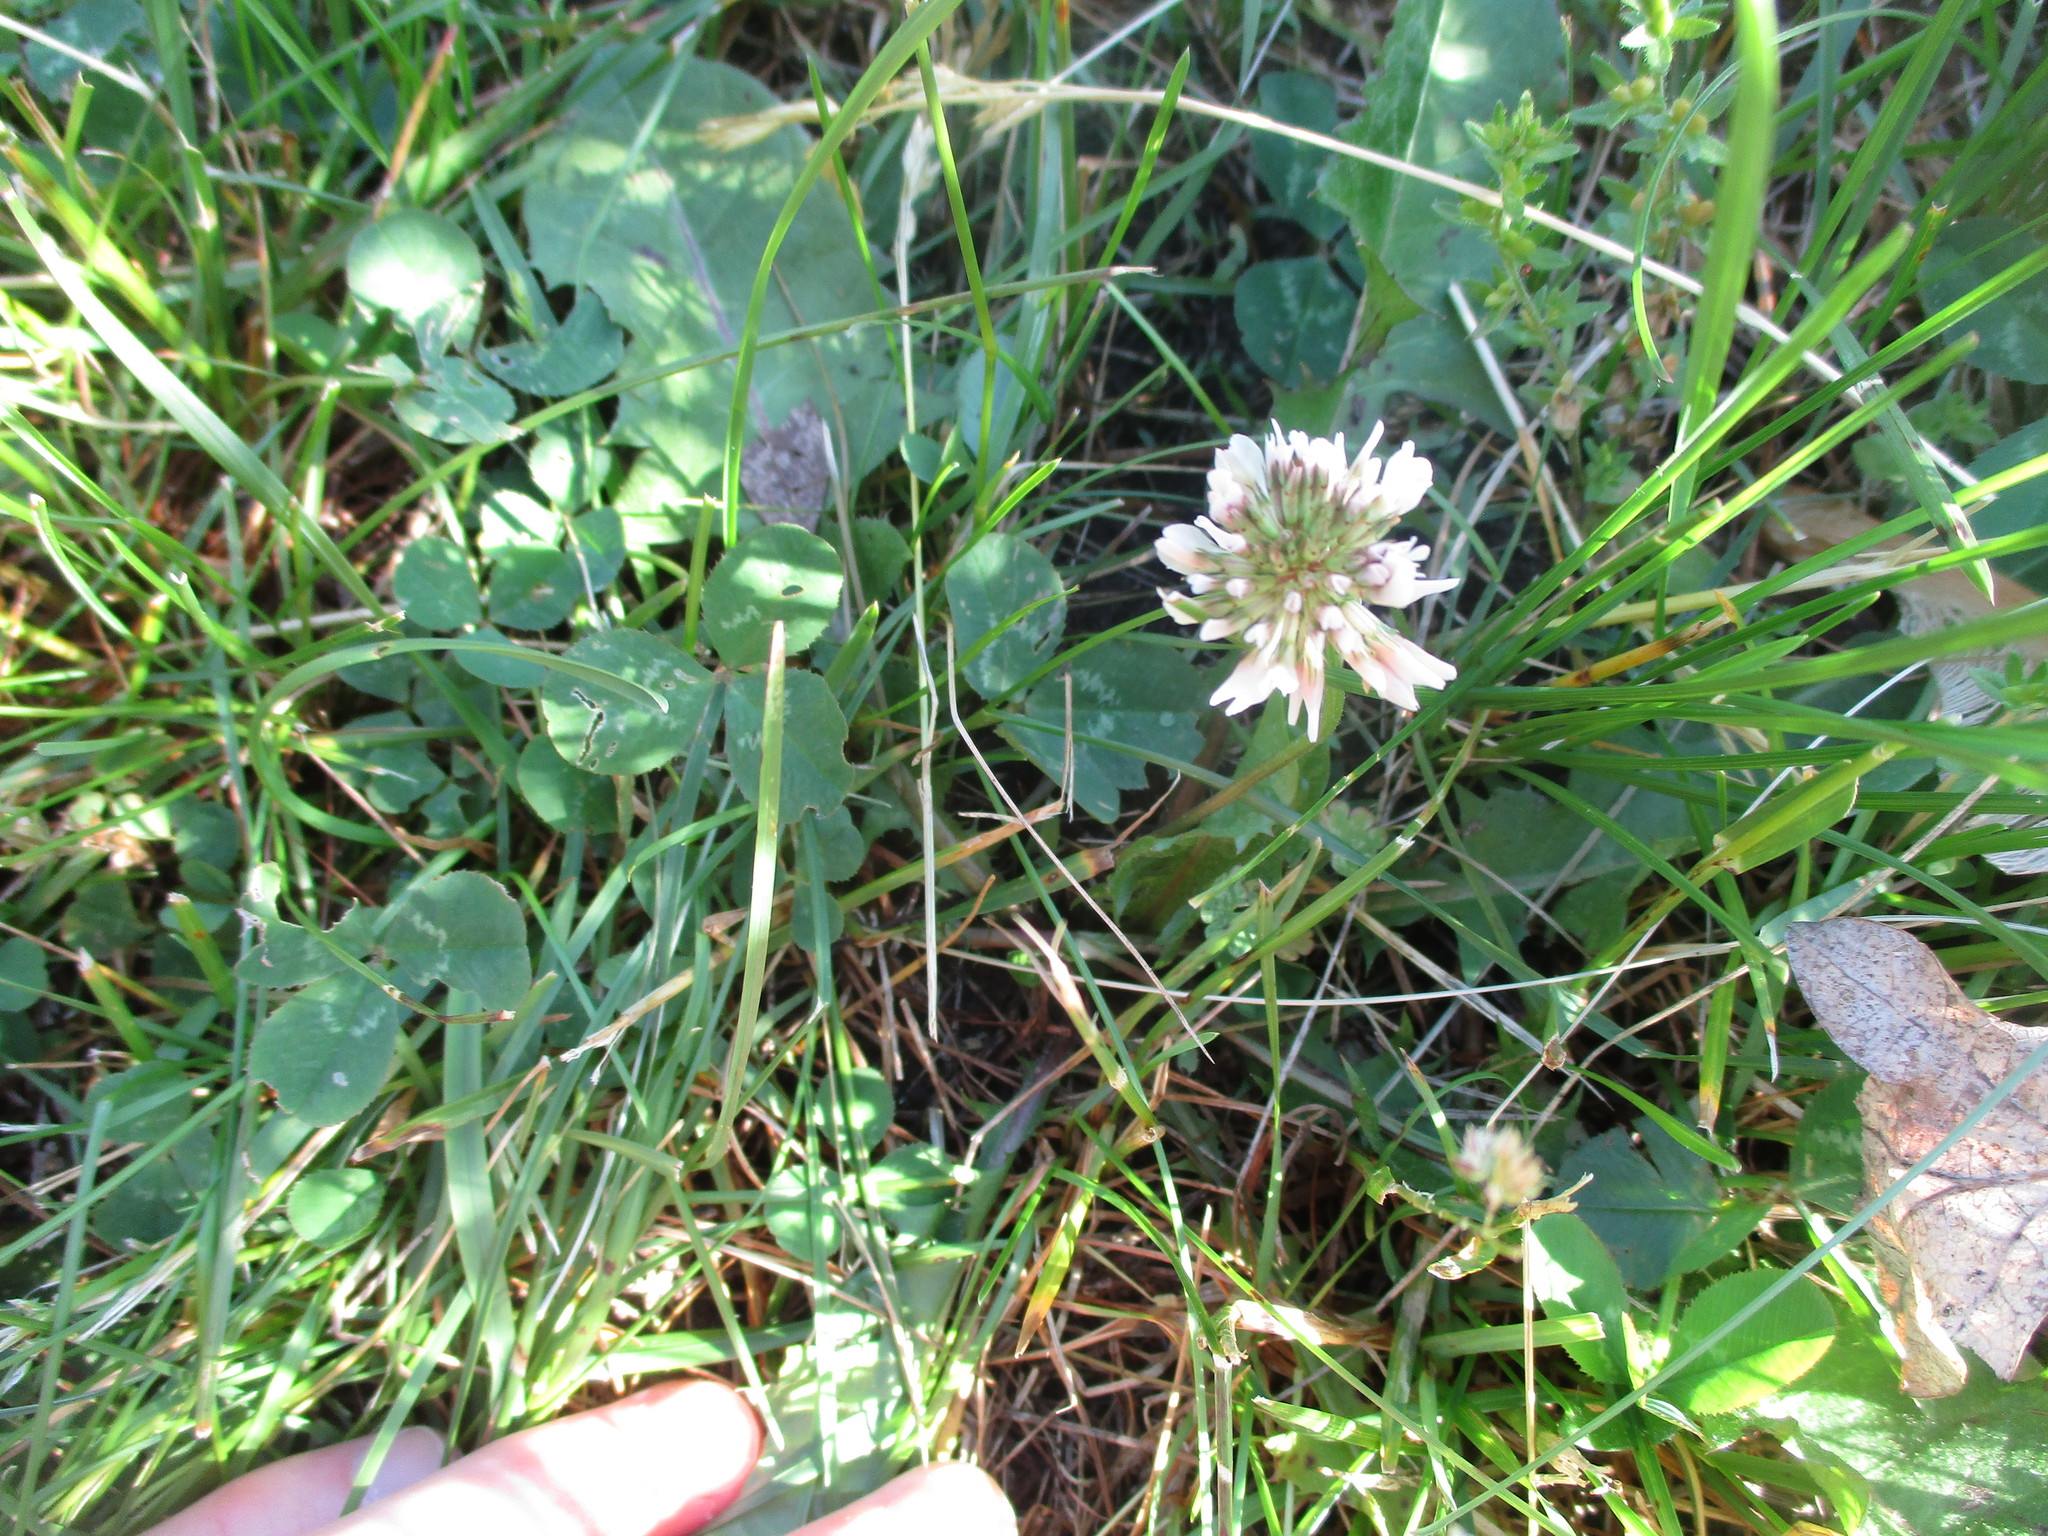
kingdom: Plantae
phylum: Tracheophyta
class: Magnoliopsida
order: Fabales
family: Fabaceae
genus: Trifolium
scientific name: Trifolium repens
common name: White clover
